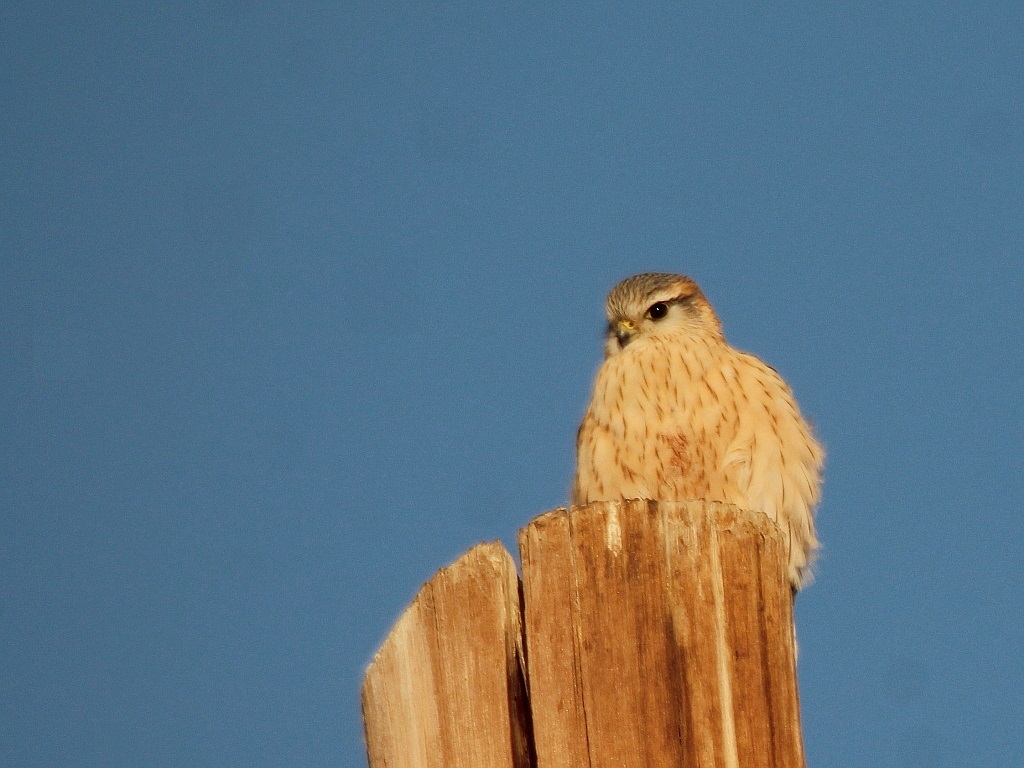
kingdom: Animalia
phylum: Chordata
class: Aves
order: Falconiformes
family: Falconidae
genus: Falco
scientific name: Falco columbarius
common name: Merlin
